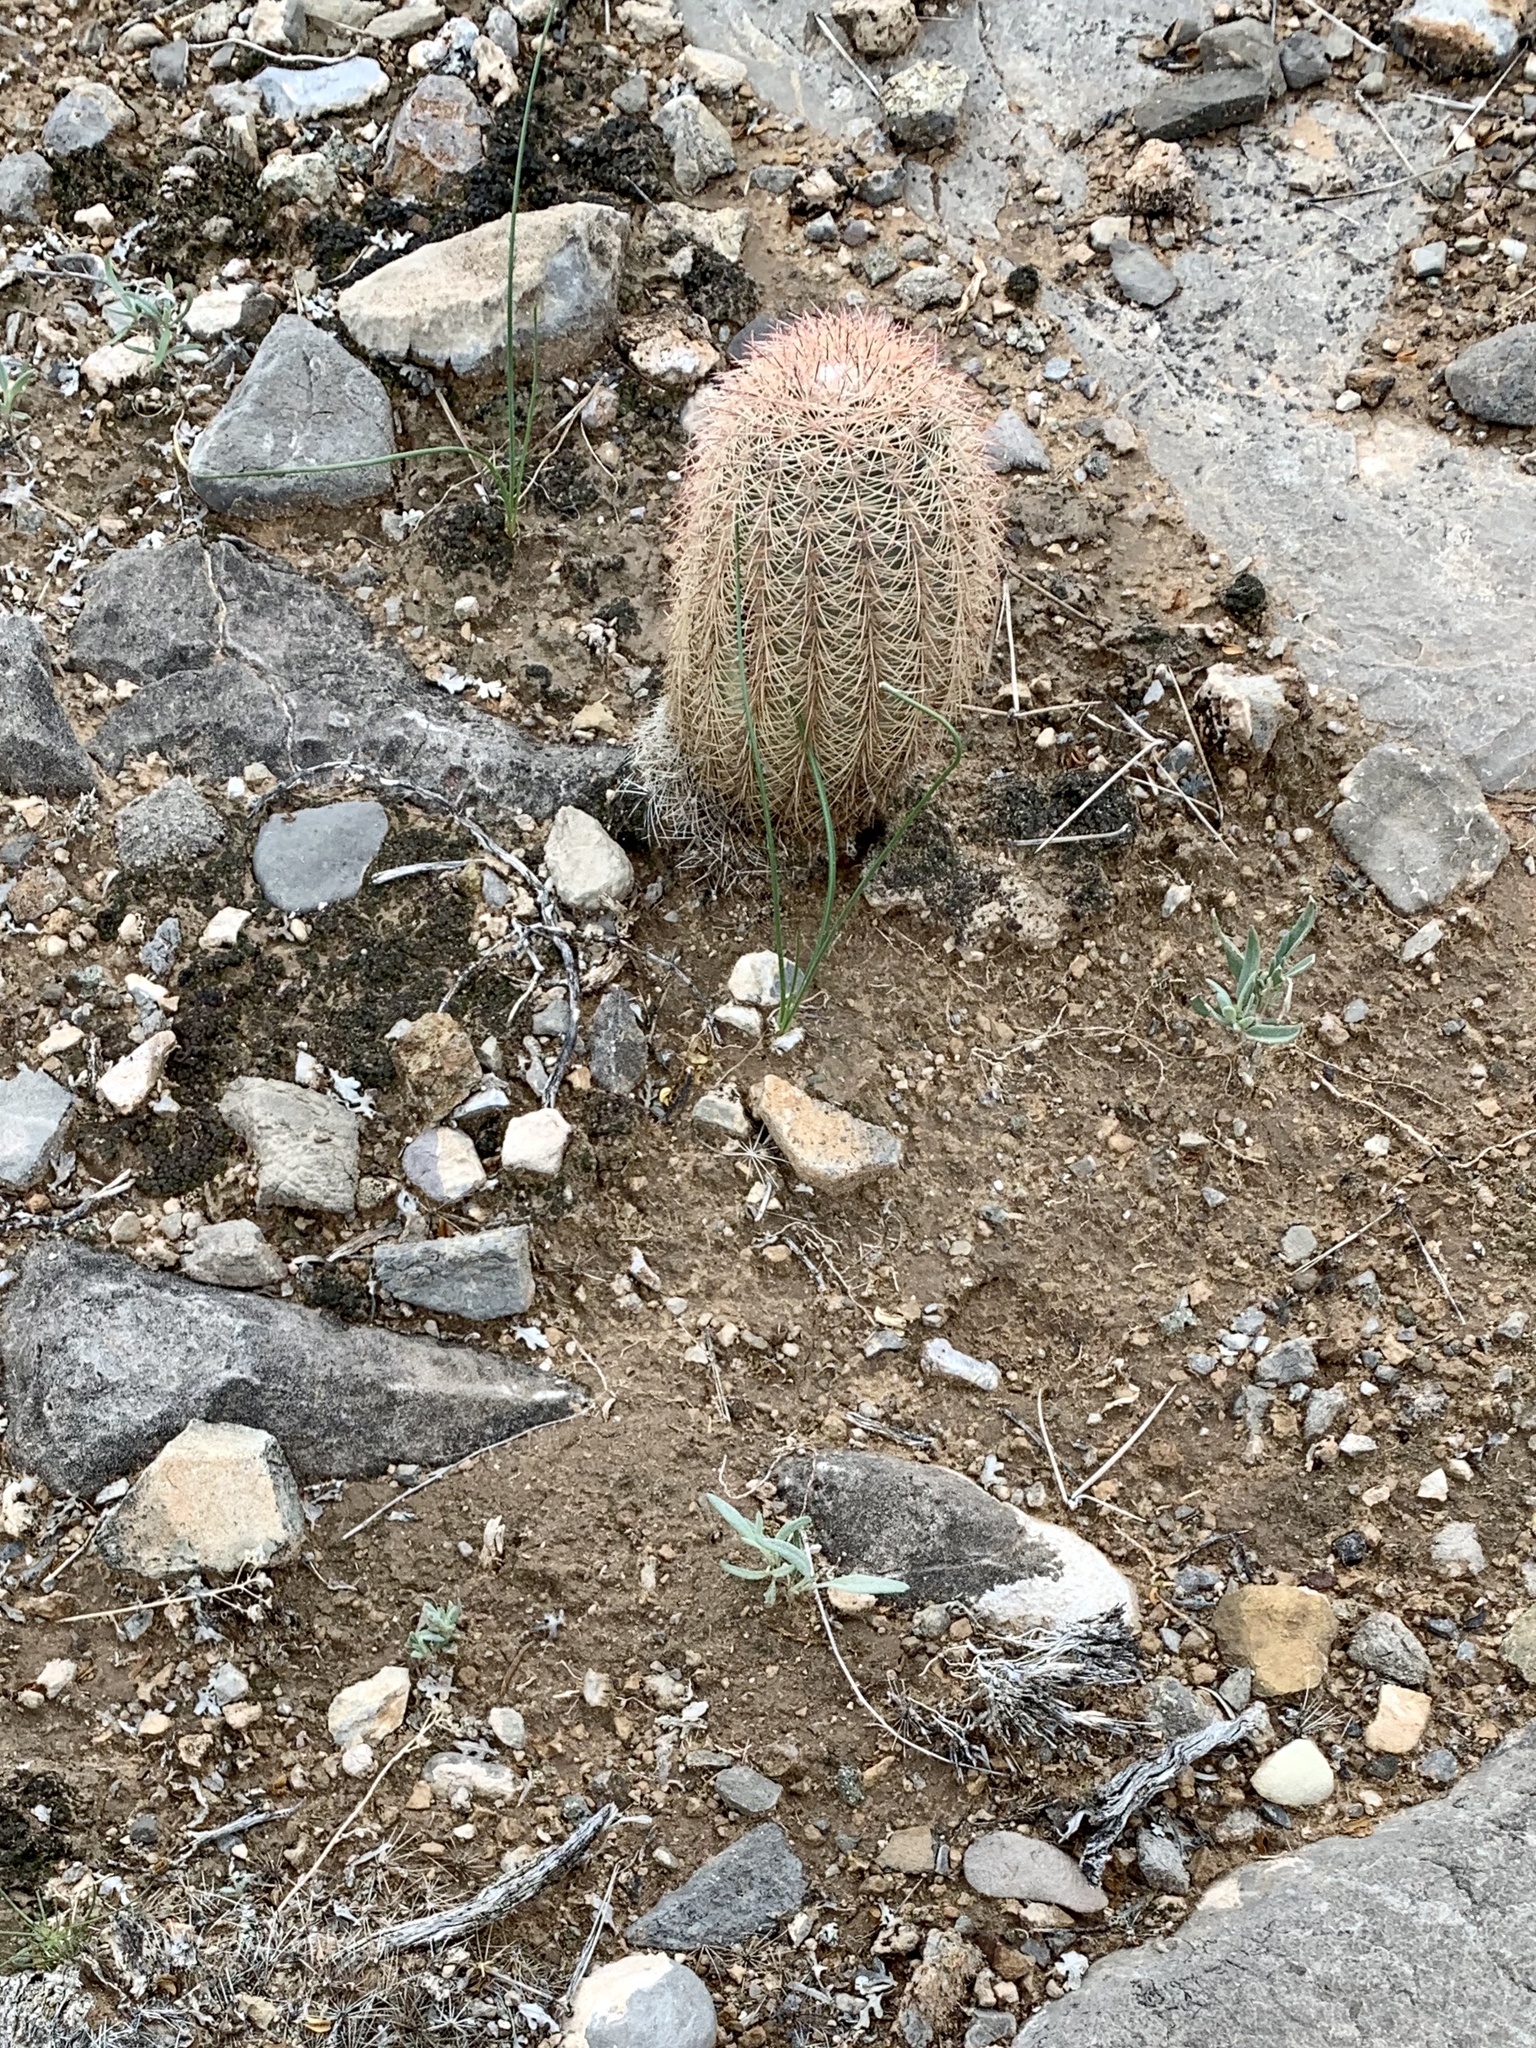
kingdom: Plantae
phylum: Tracheophyta
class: Magnoliopsida
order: Caryophyllales
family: Cactaceae
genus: Echinocereus
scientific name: Echinocereus dasyacanthus
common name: Spiny hedgehog cactus
